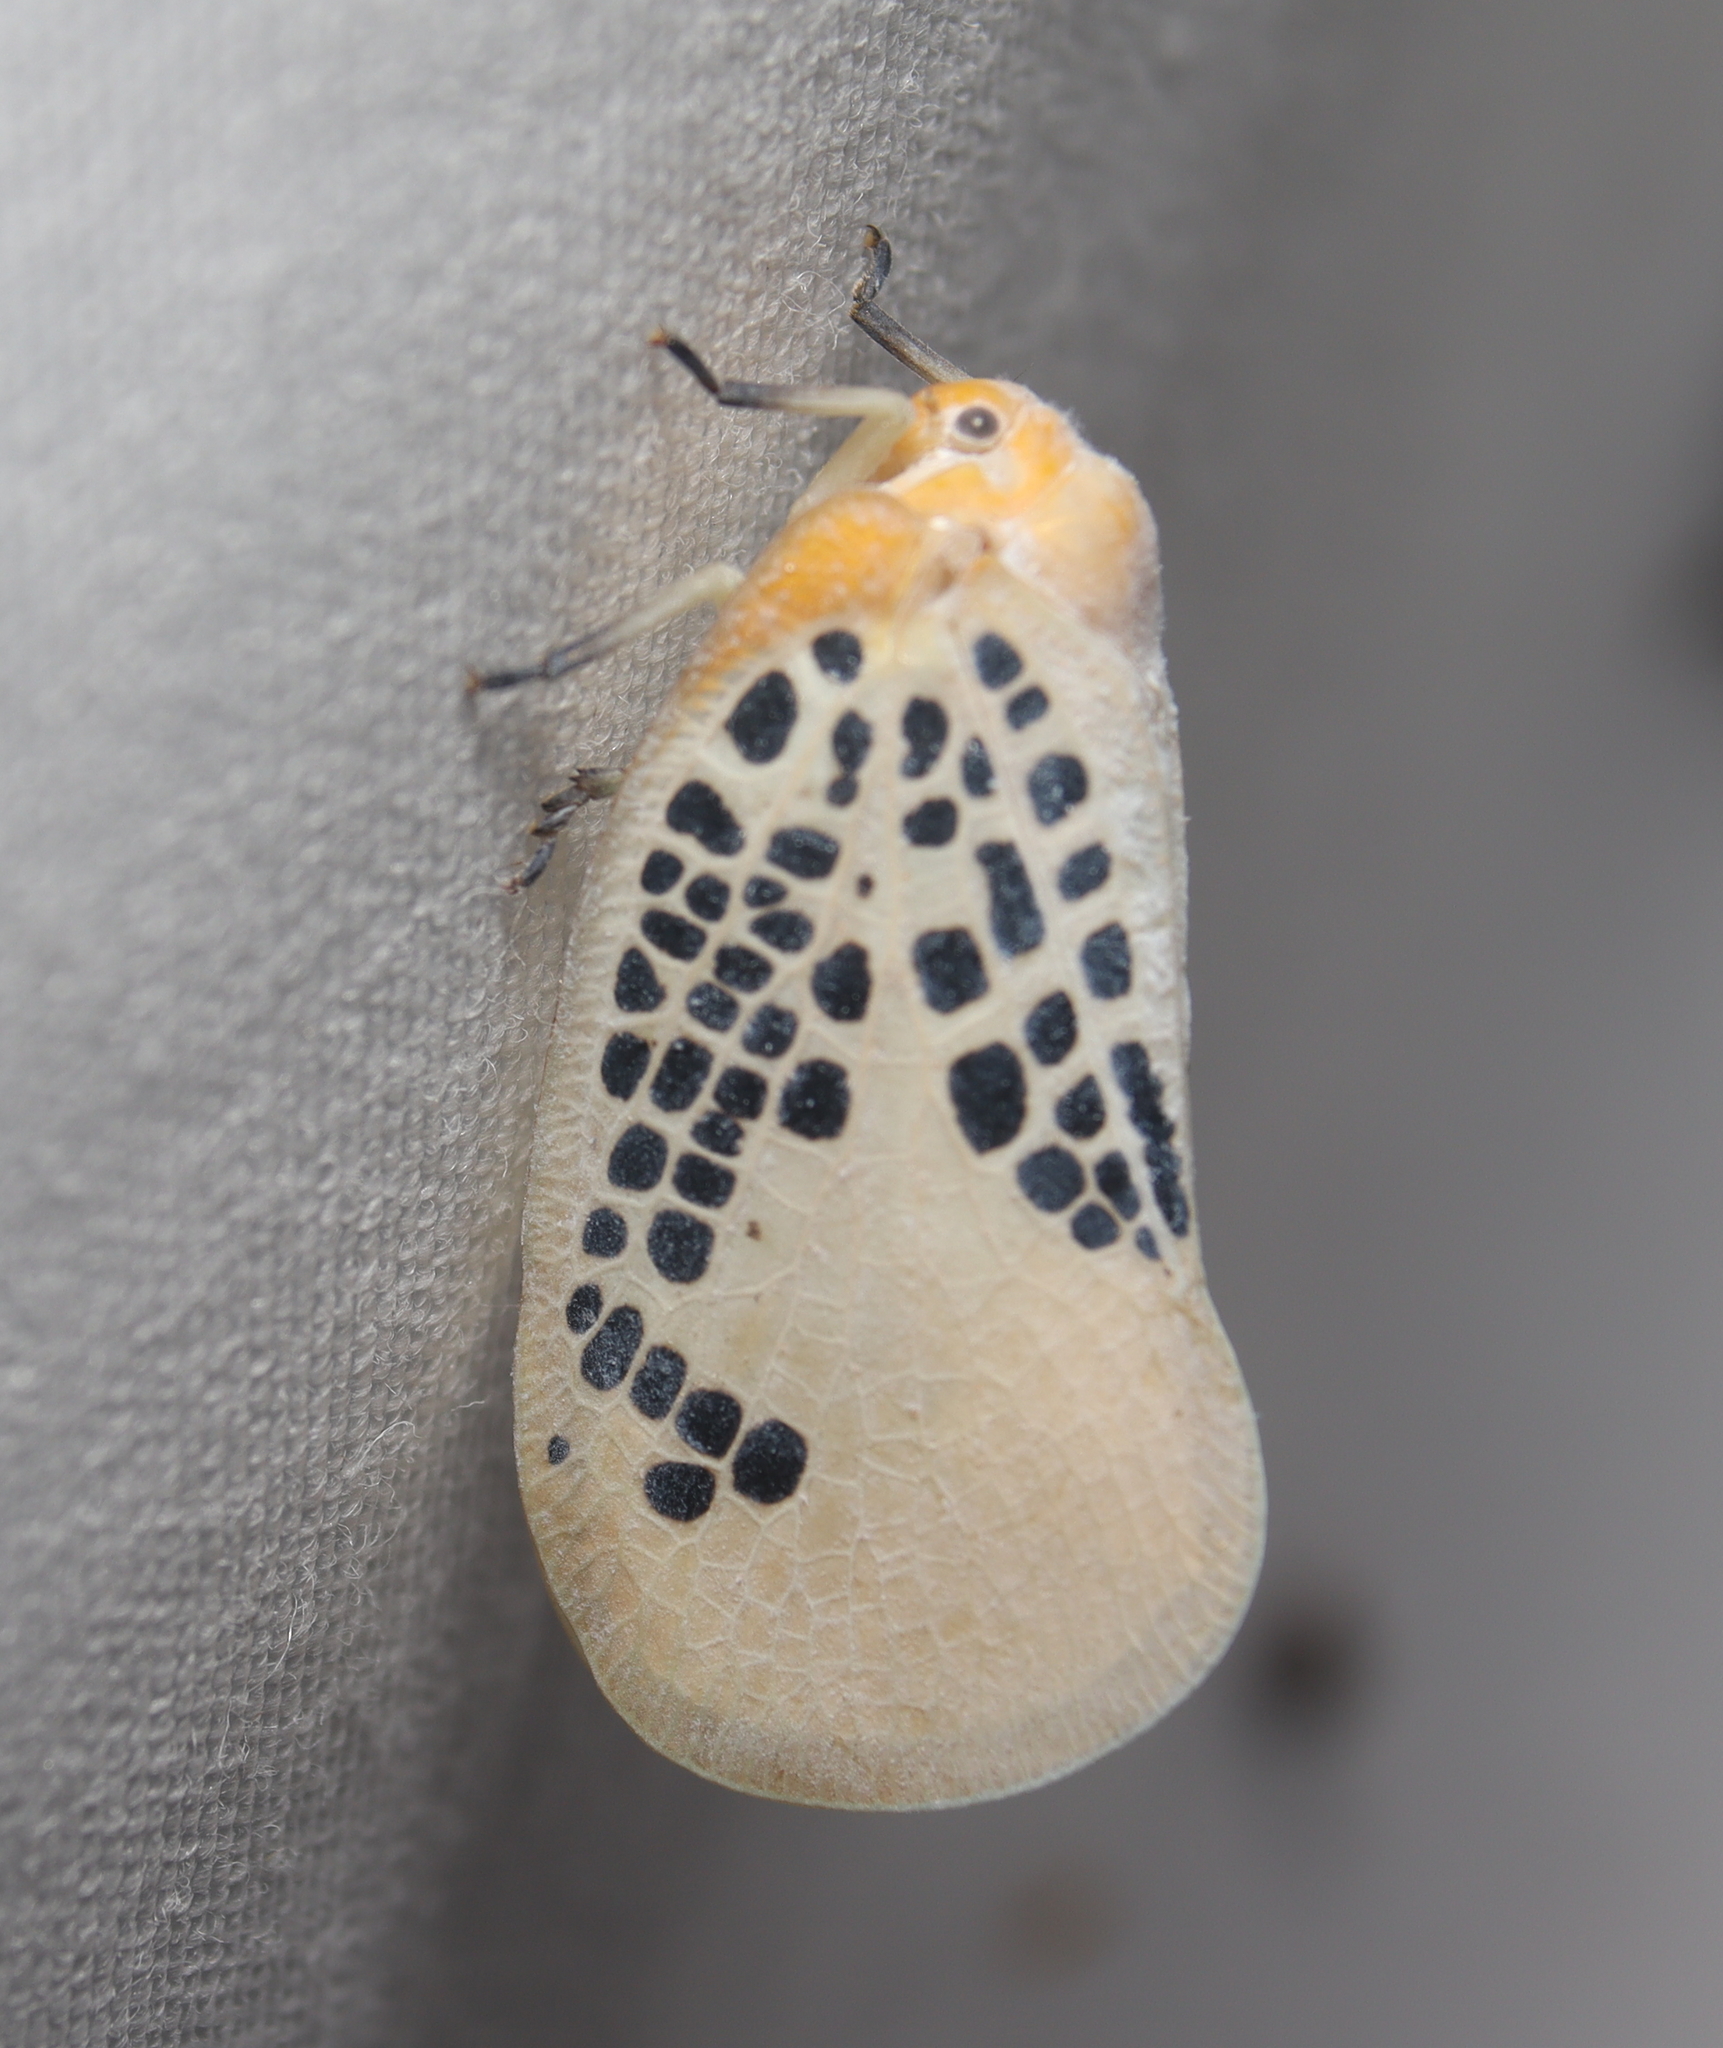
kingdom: Animalia
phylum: Arthropoda
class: Insecta
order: Hemiptera
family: Flatidae
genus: Poekilloptera
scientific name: Poekilloptera phalaenoides
